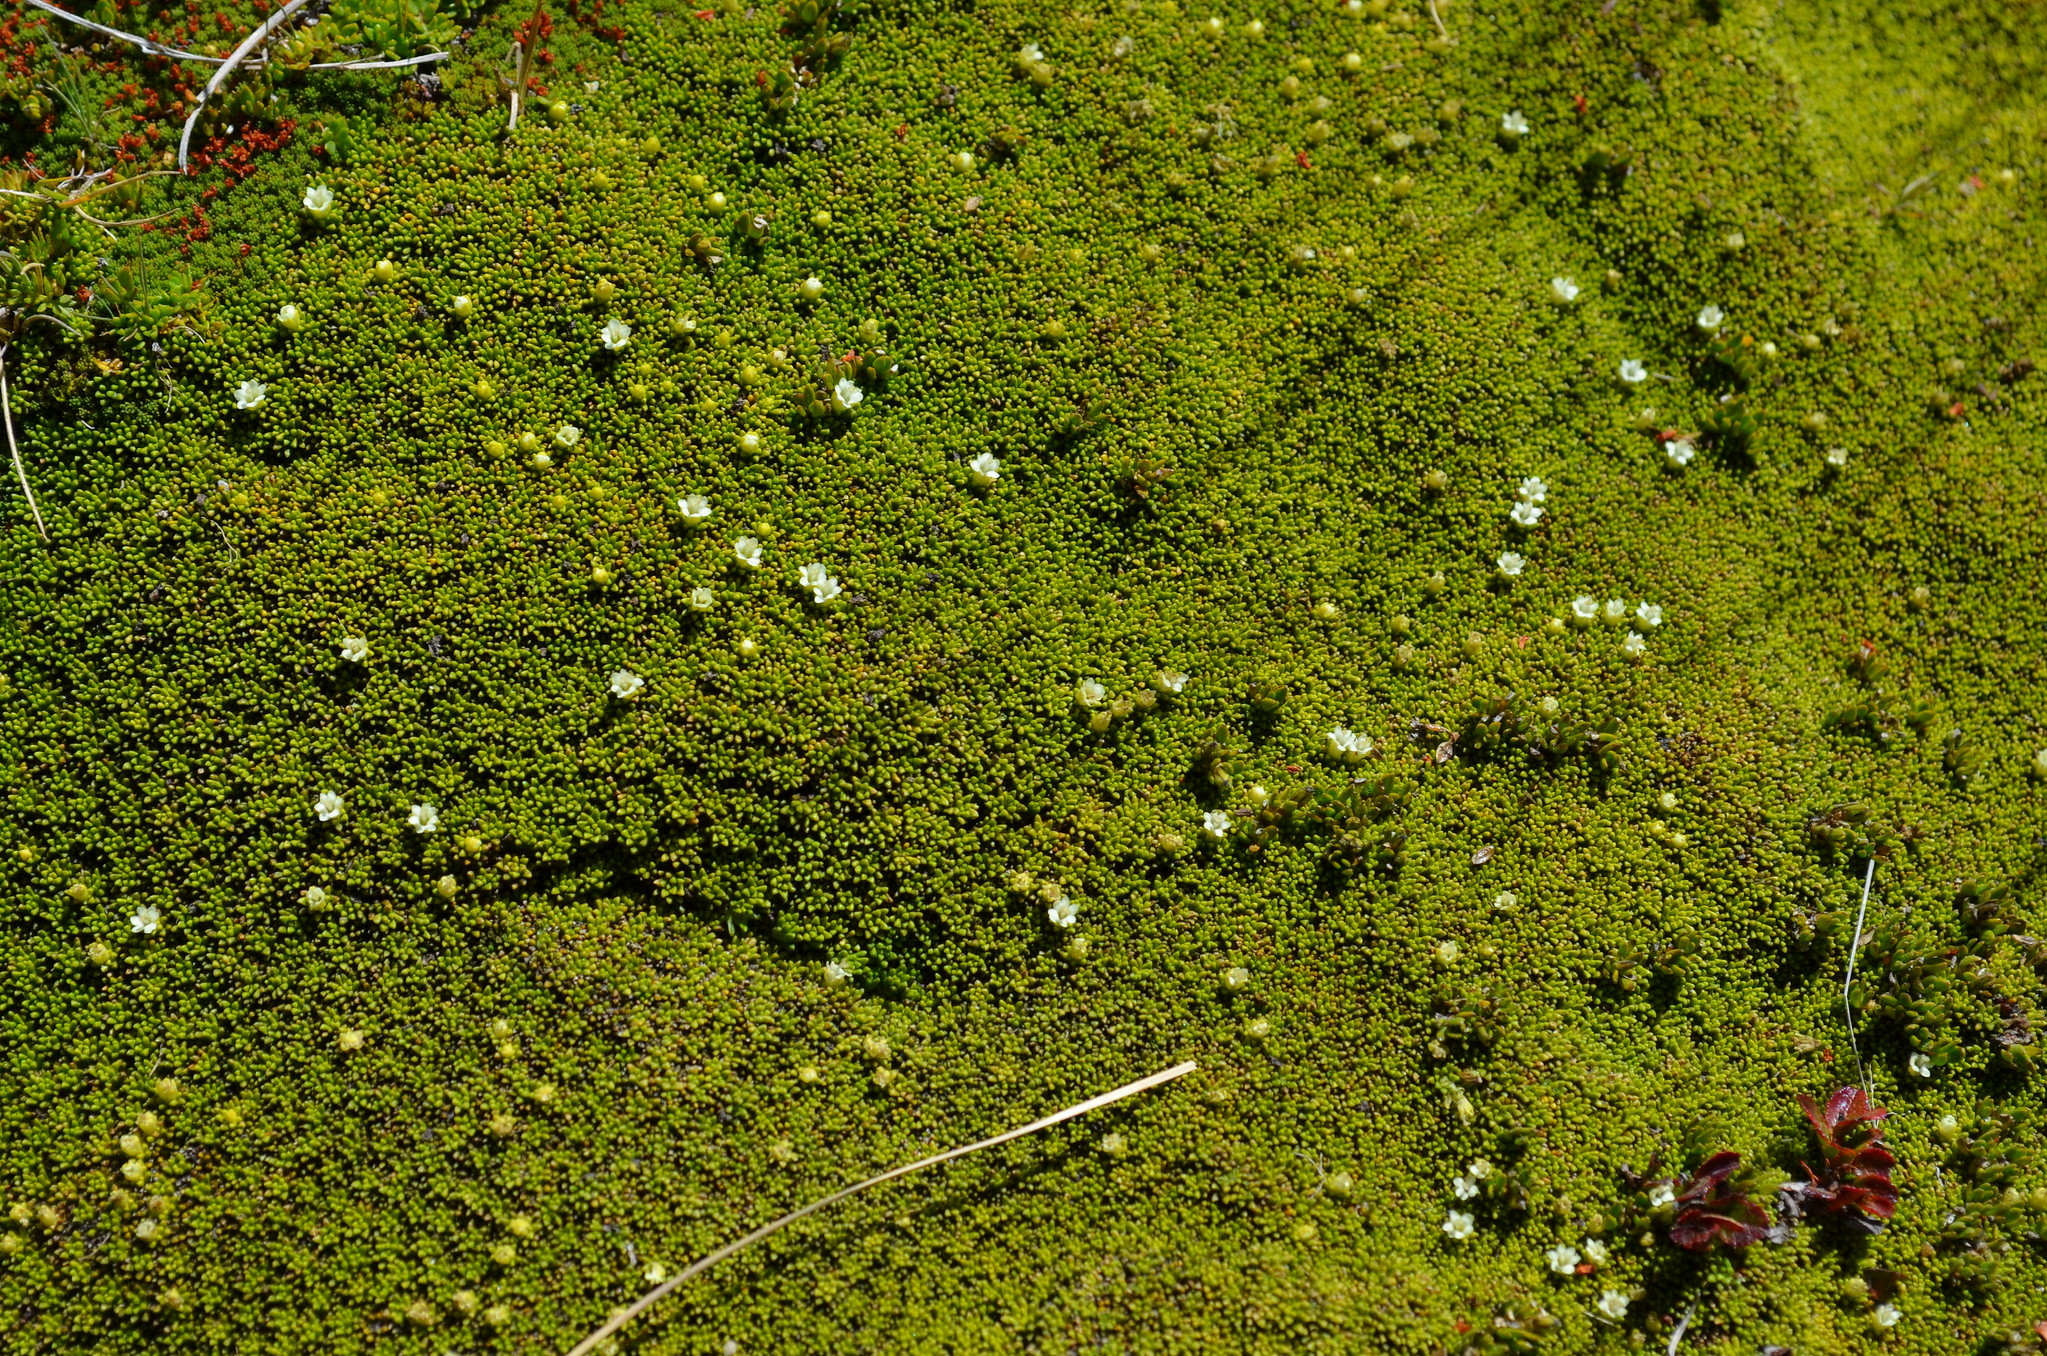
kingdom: Plantae
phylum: Tracheophyta
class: Magnoliopsida
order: Asterales
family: Stylidiaceae
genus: Phyllachne
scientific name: Phyllachne colensoi
